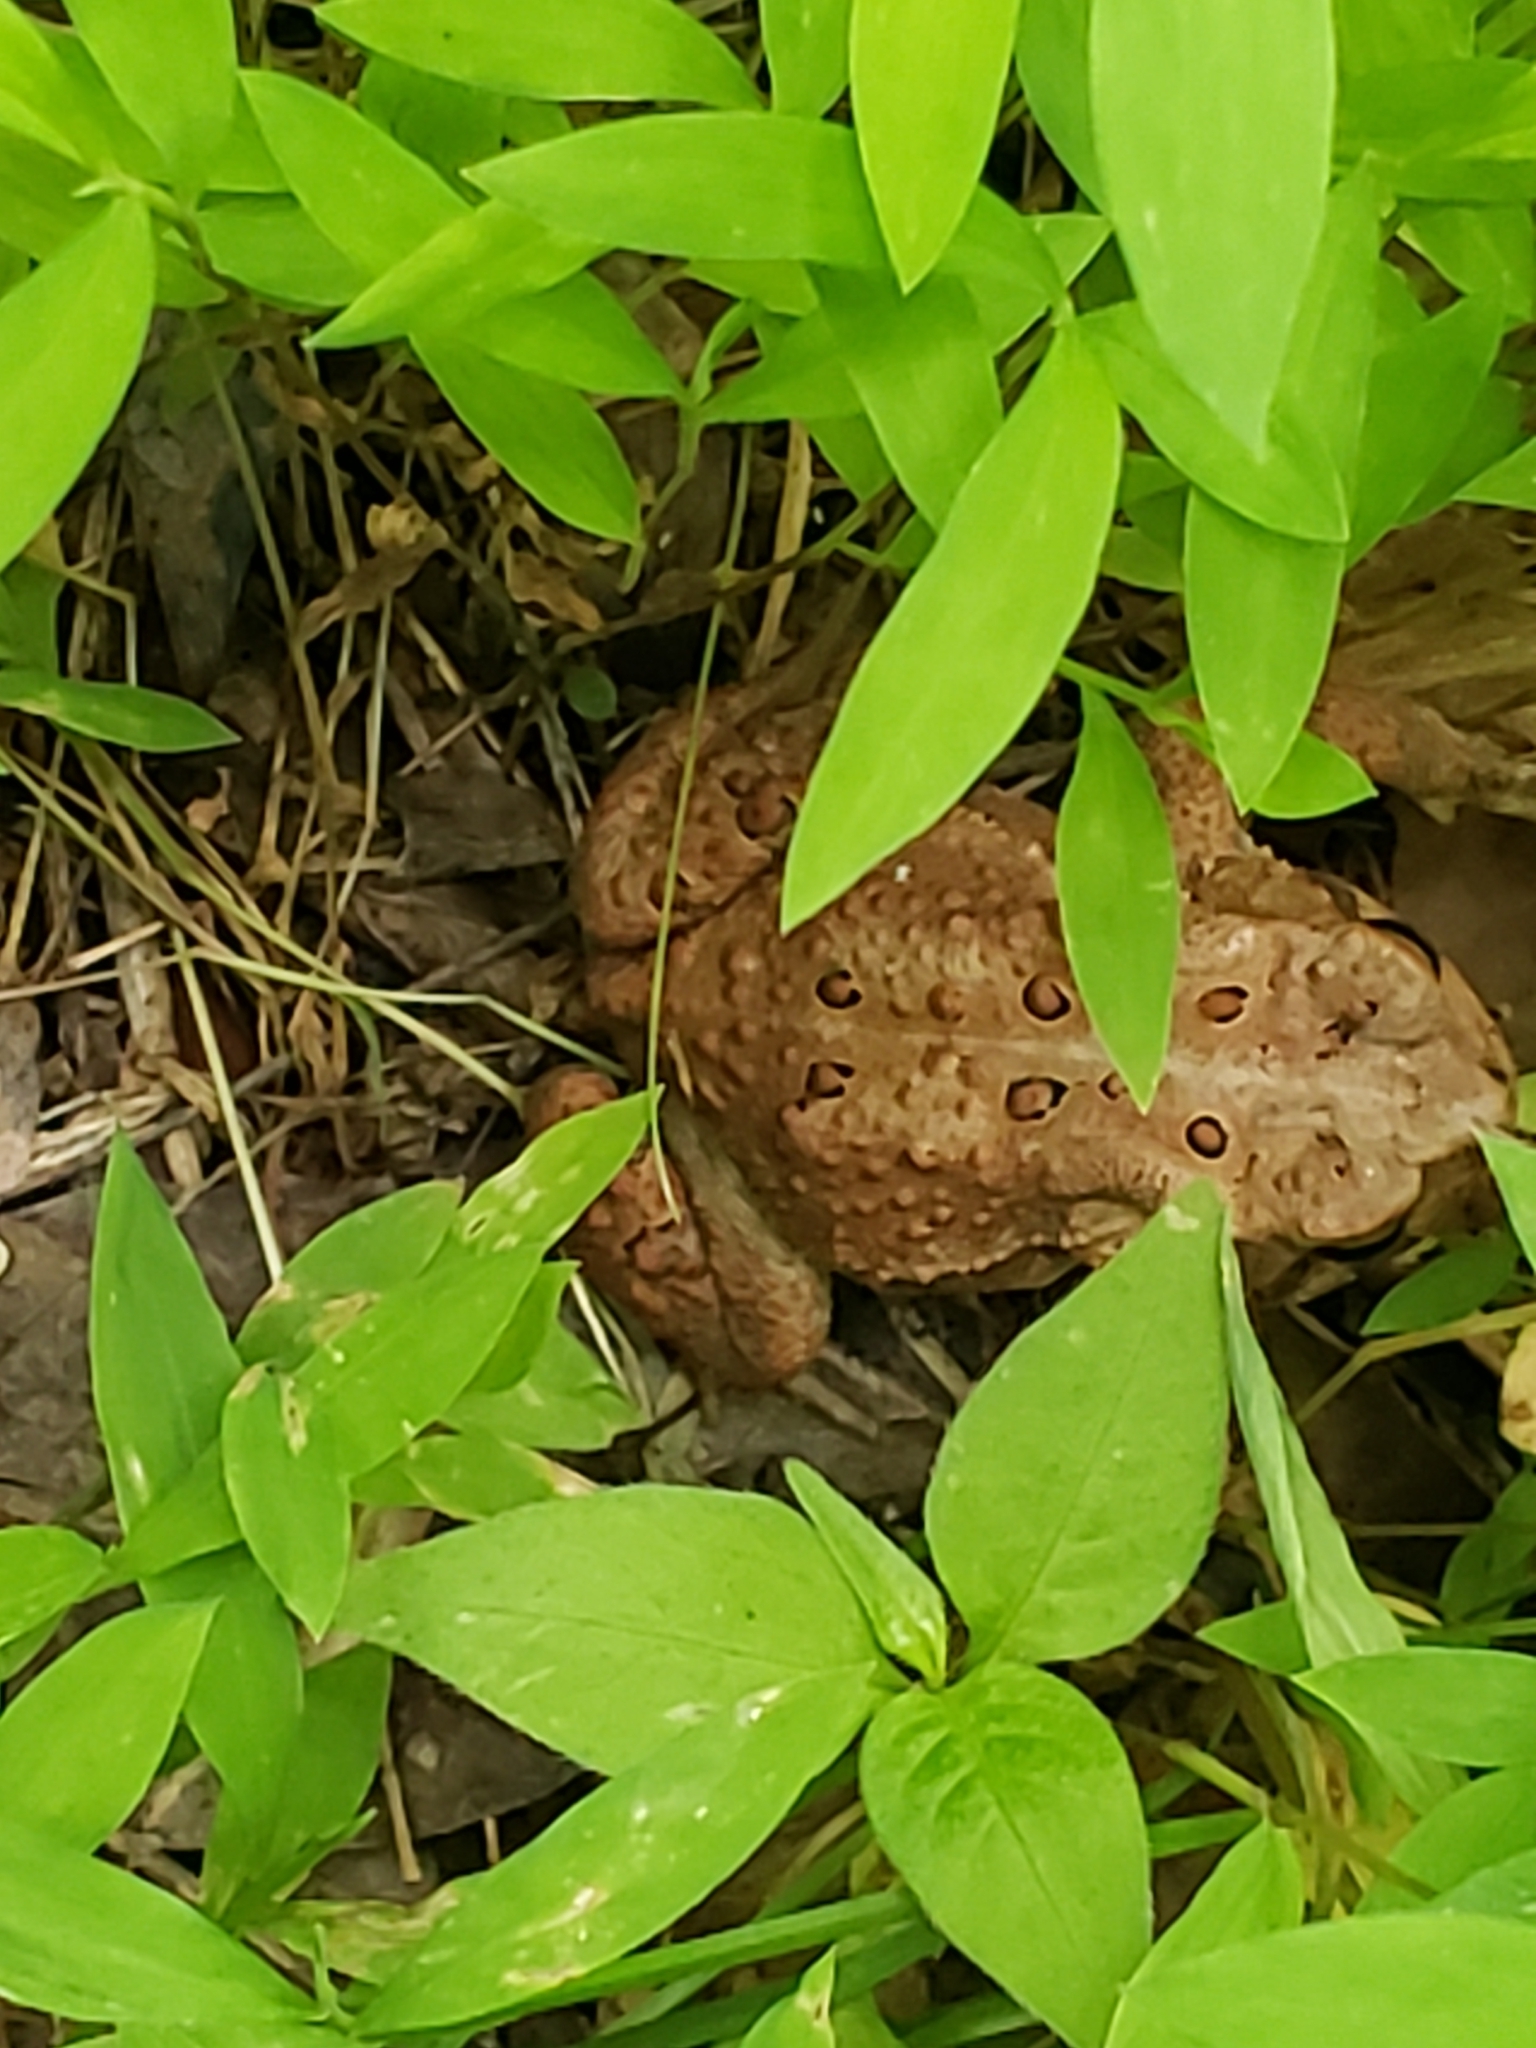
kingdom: Animalia
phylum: Chordata
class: Amphibia
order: Anura
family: Bufonidae
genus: Anaxyrus
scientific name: Anaxyrus americanus
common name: American toad
